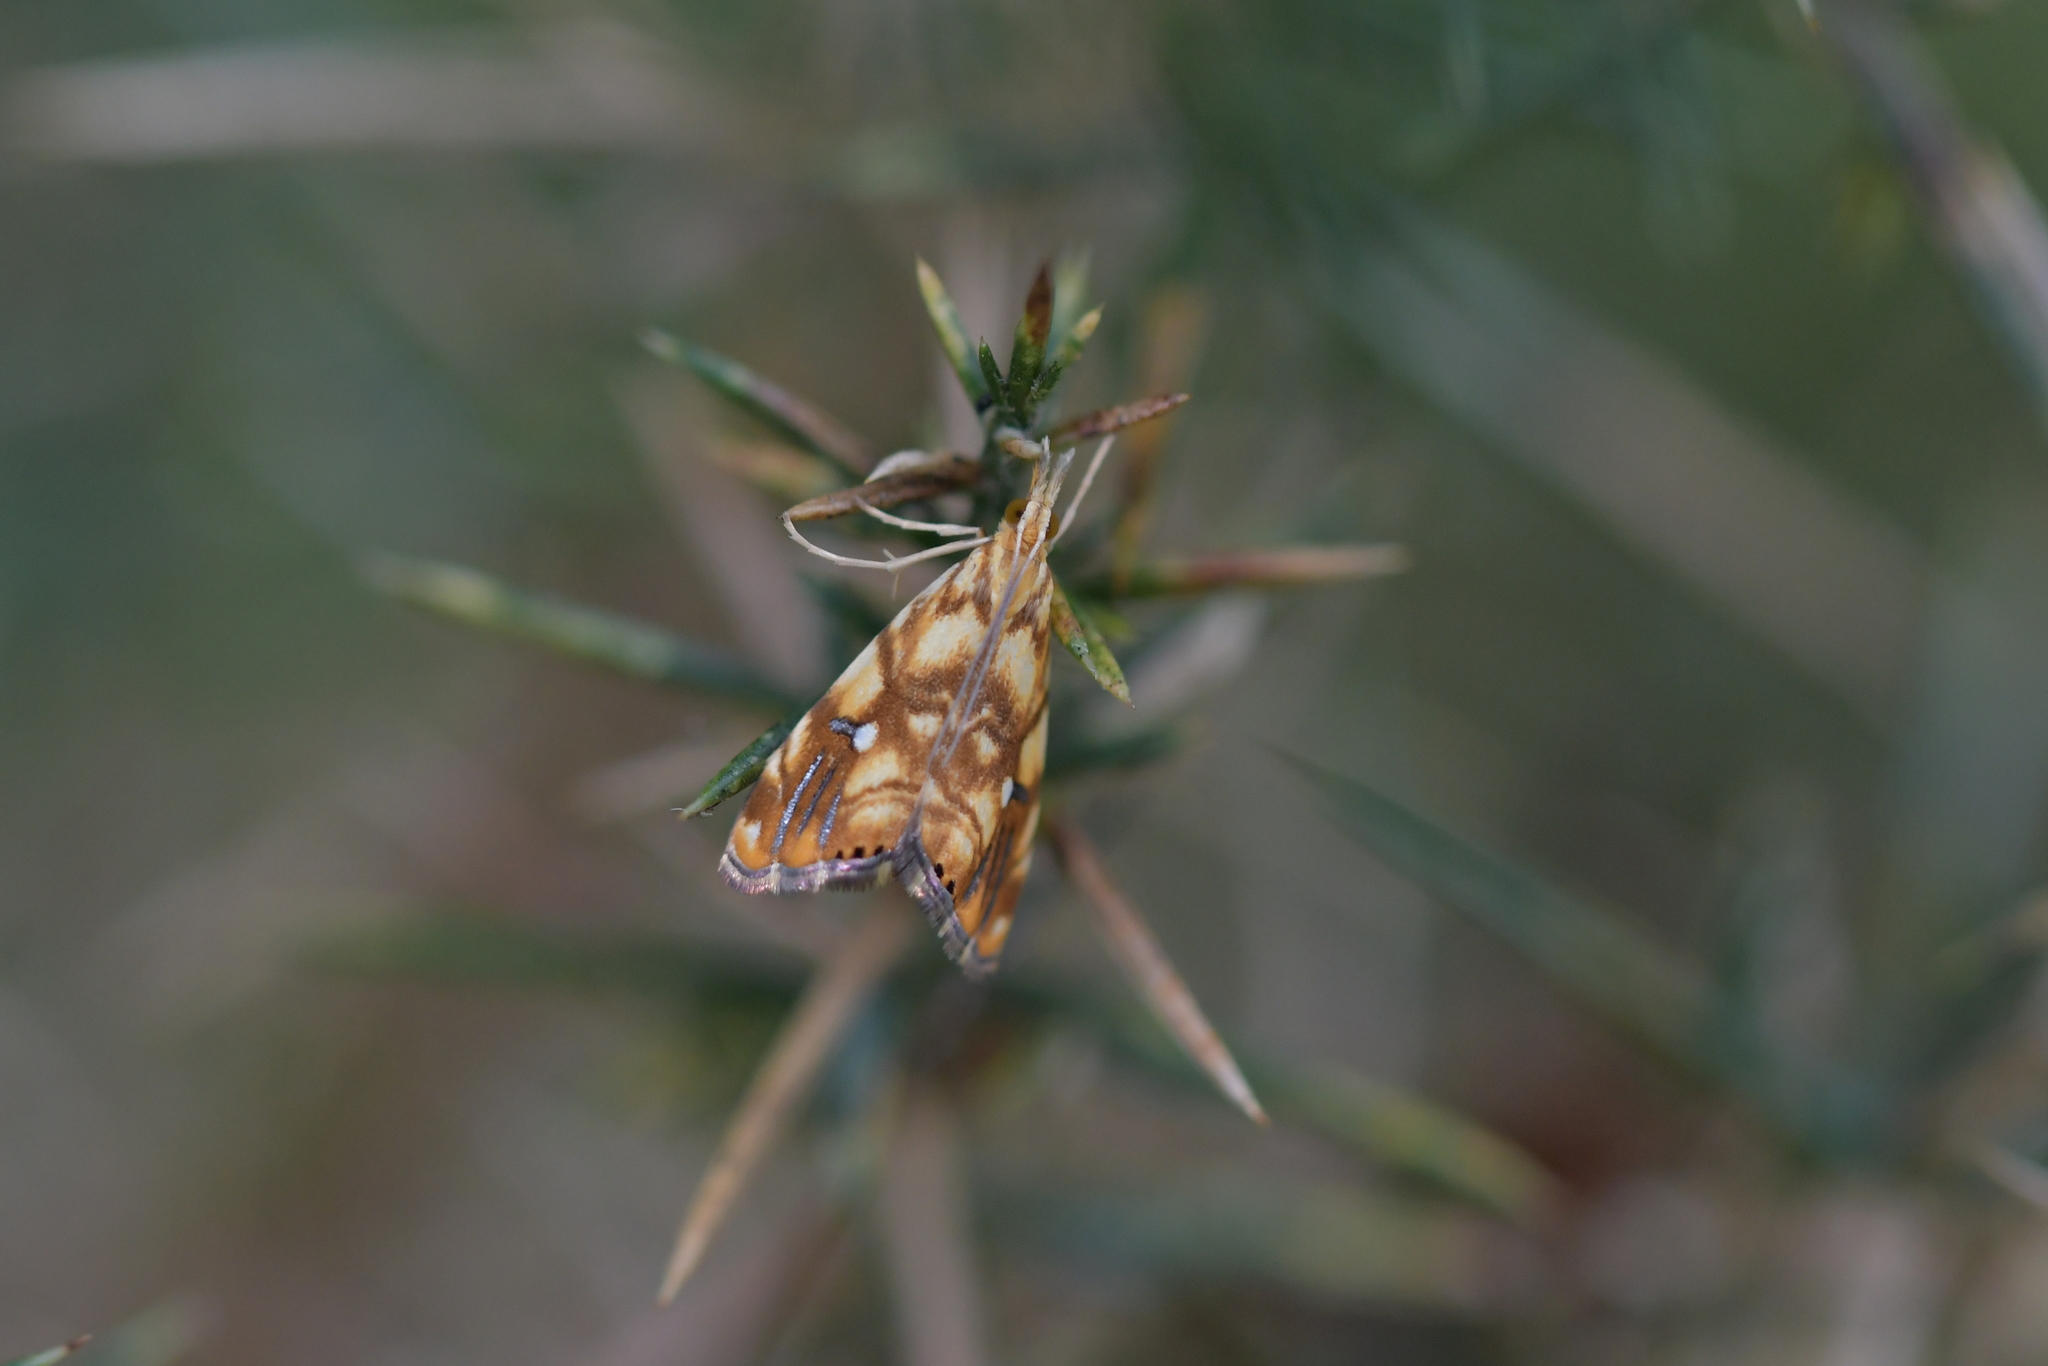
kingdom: Animalia
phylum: Arthropoda
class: Insecta
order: Lepidoptera
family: Crambidae
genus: Glaucocharis
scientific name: Glaucocharis selenaea
